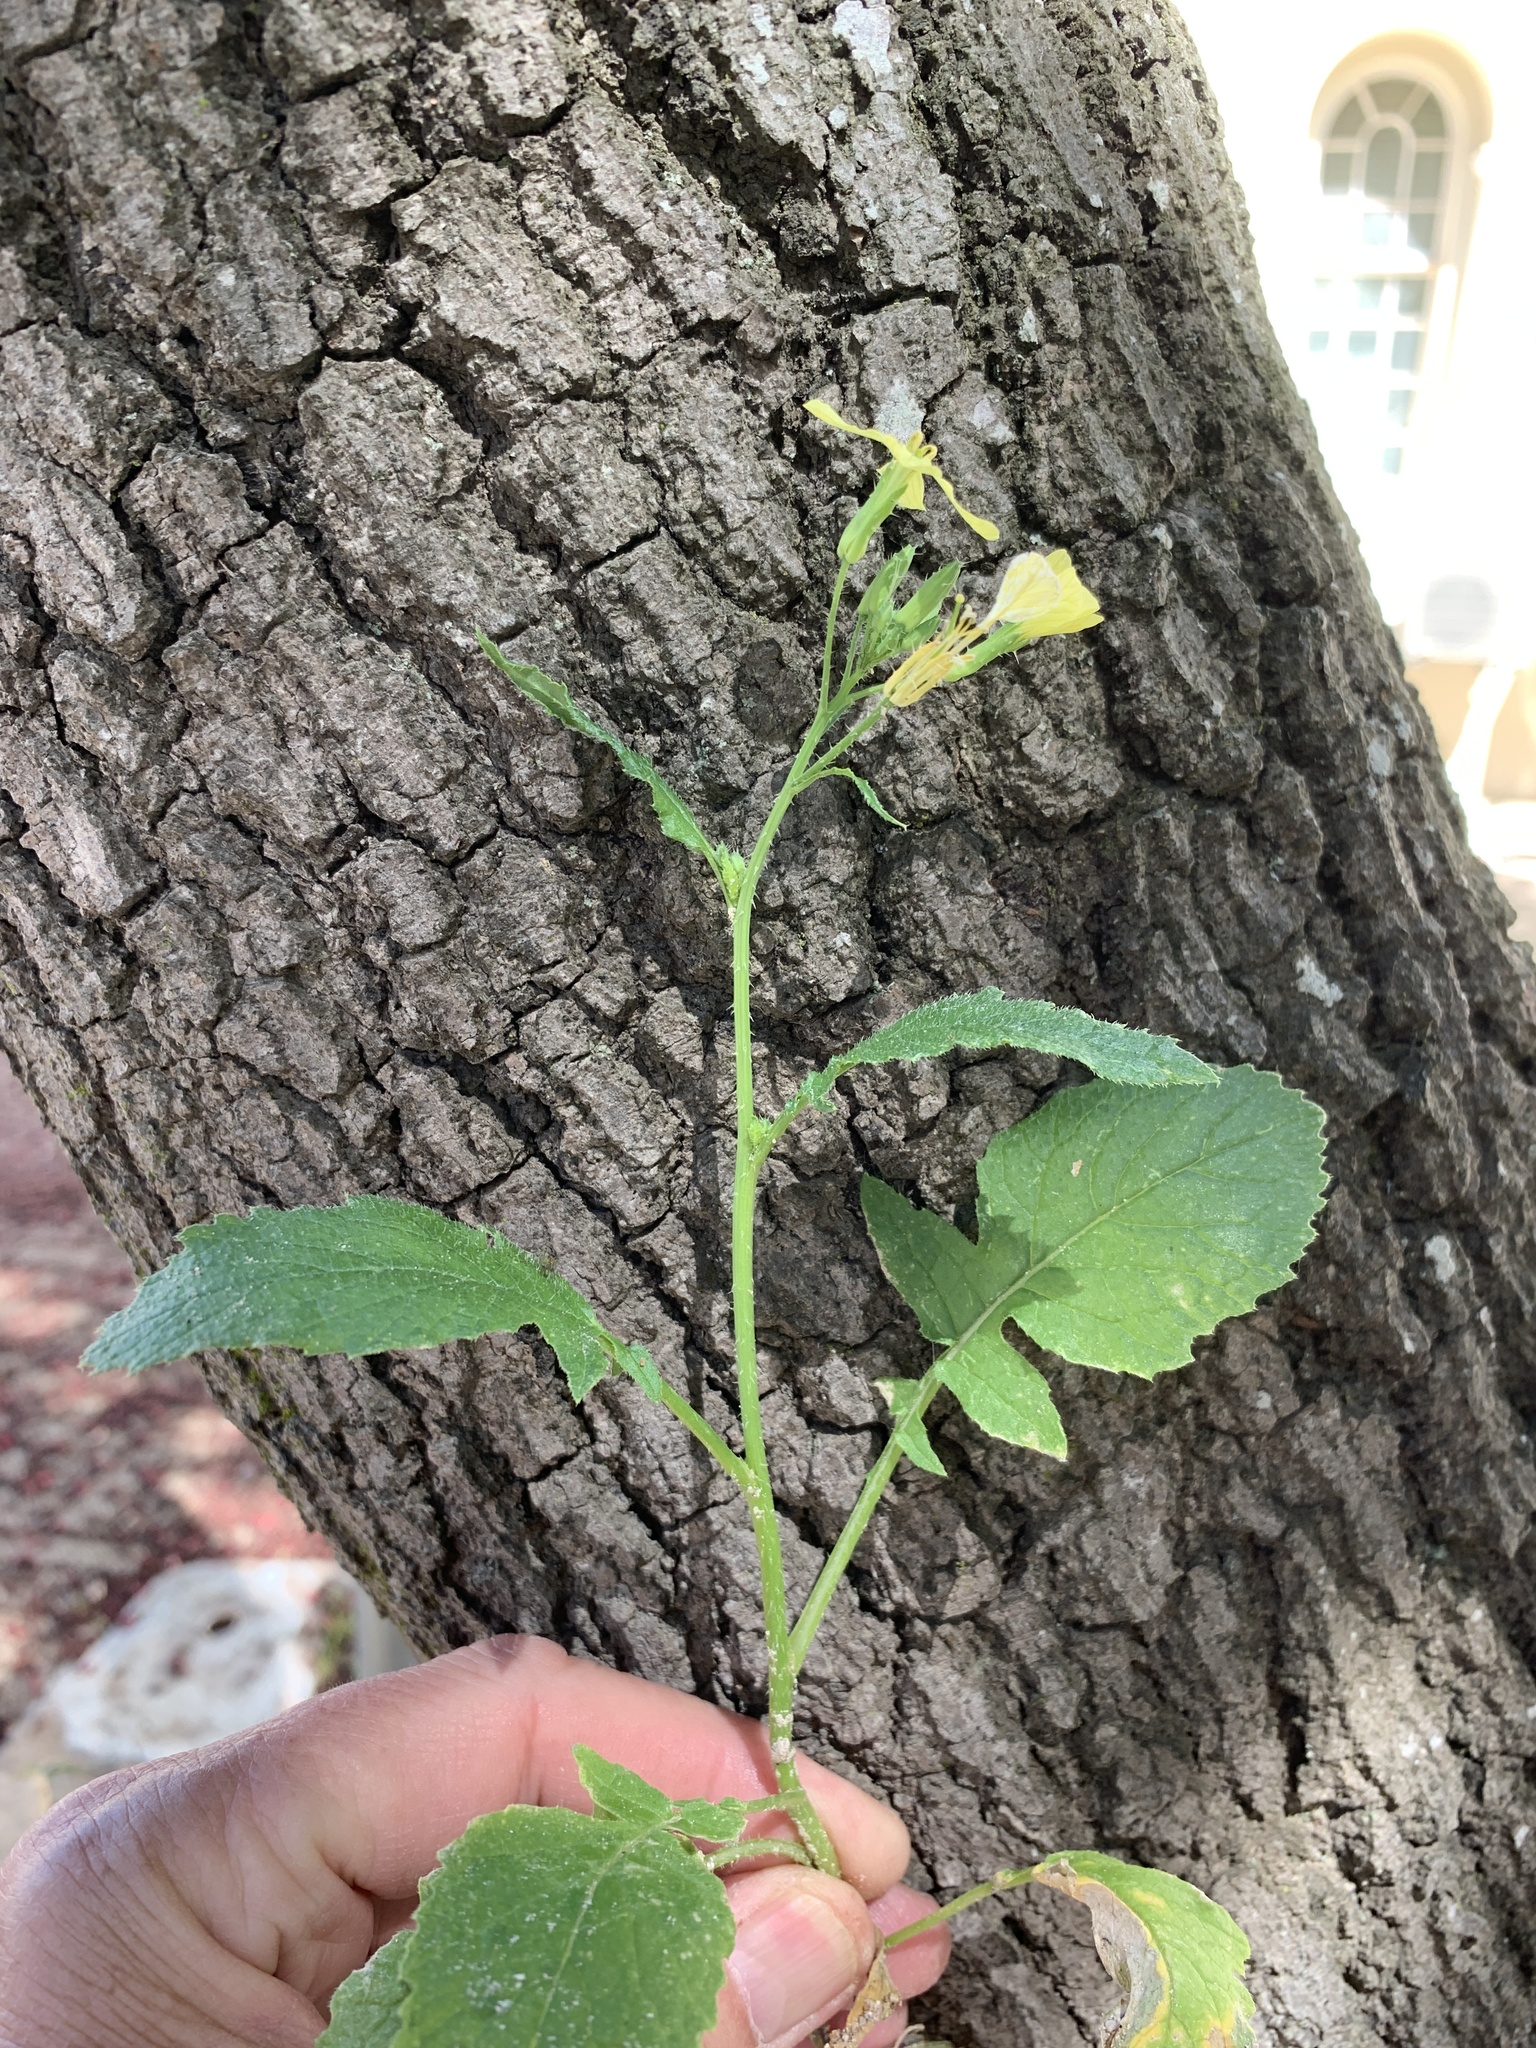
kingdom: Plantae
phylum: Tracheophyta
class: Magnoliopsida
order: Brassicales
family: Brassicaceae
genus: Raphanus
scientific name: Raphanus raphanistrum
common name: Wild radish
